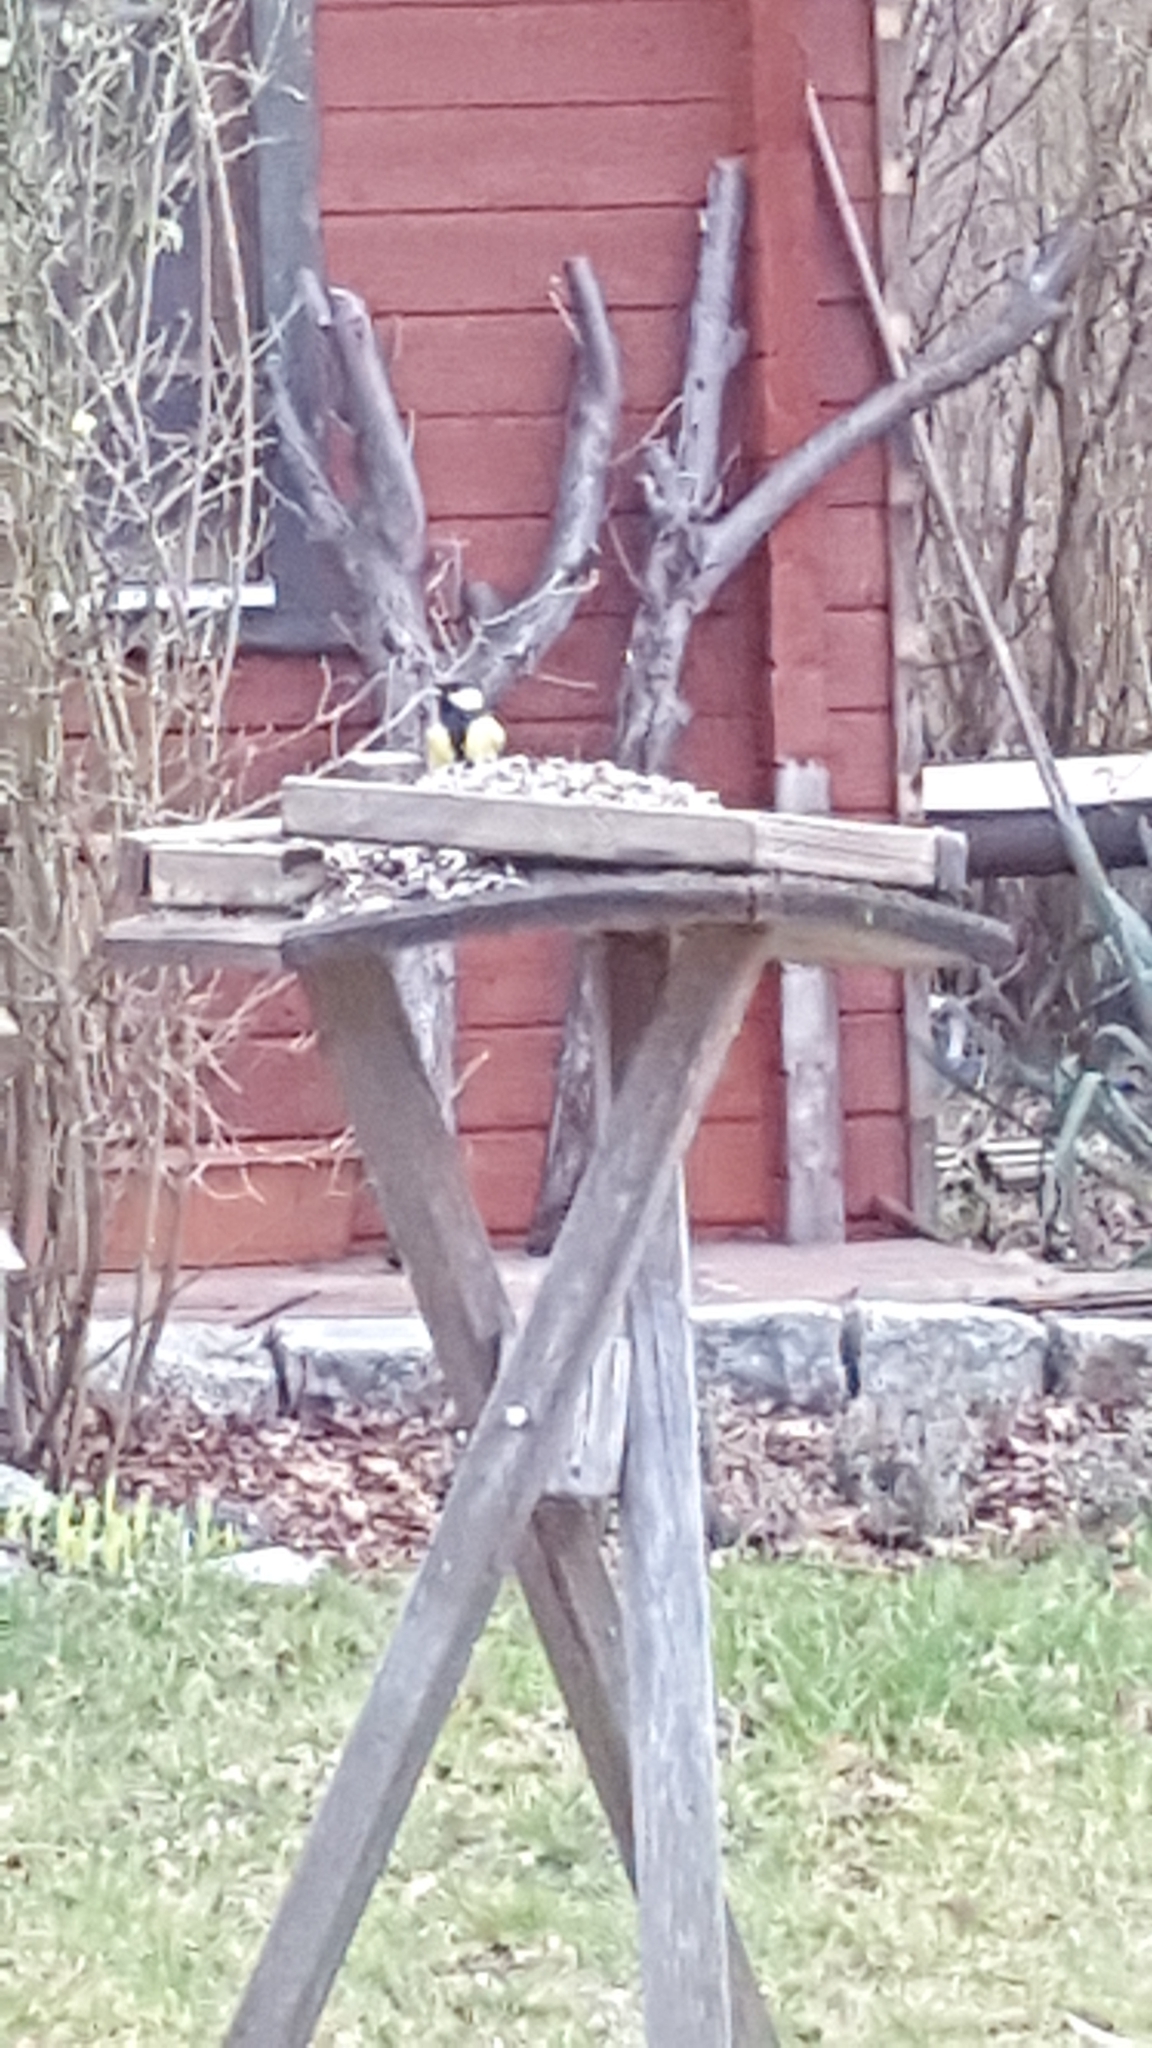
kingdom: Animalia
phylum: Chordata
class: Aves
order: Passeriformes
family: Paridae
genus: Parus
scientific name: Parus major
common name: Great tit
